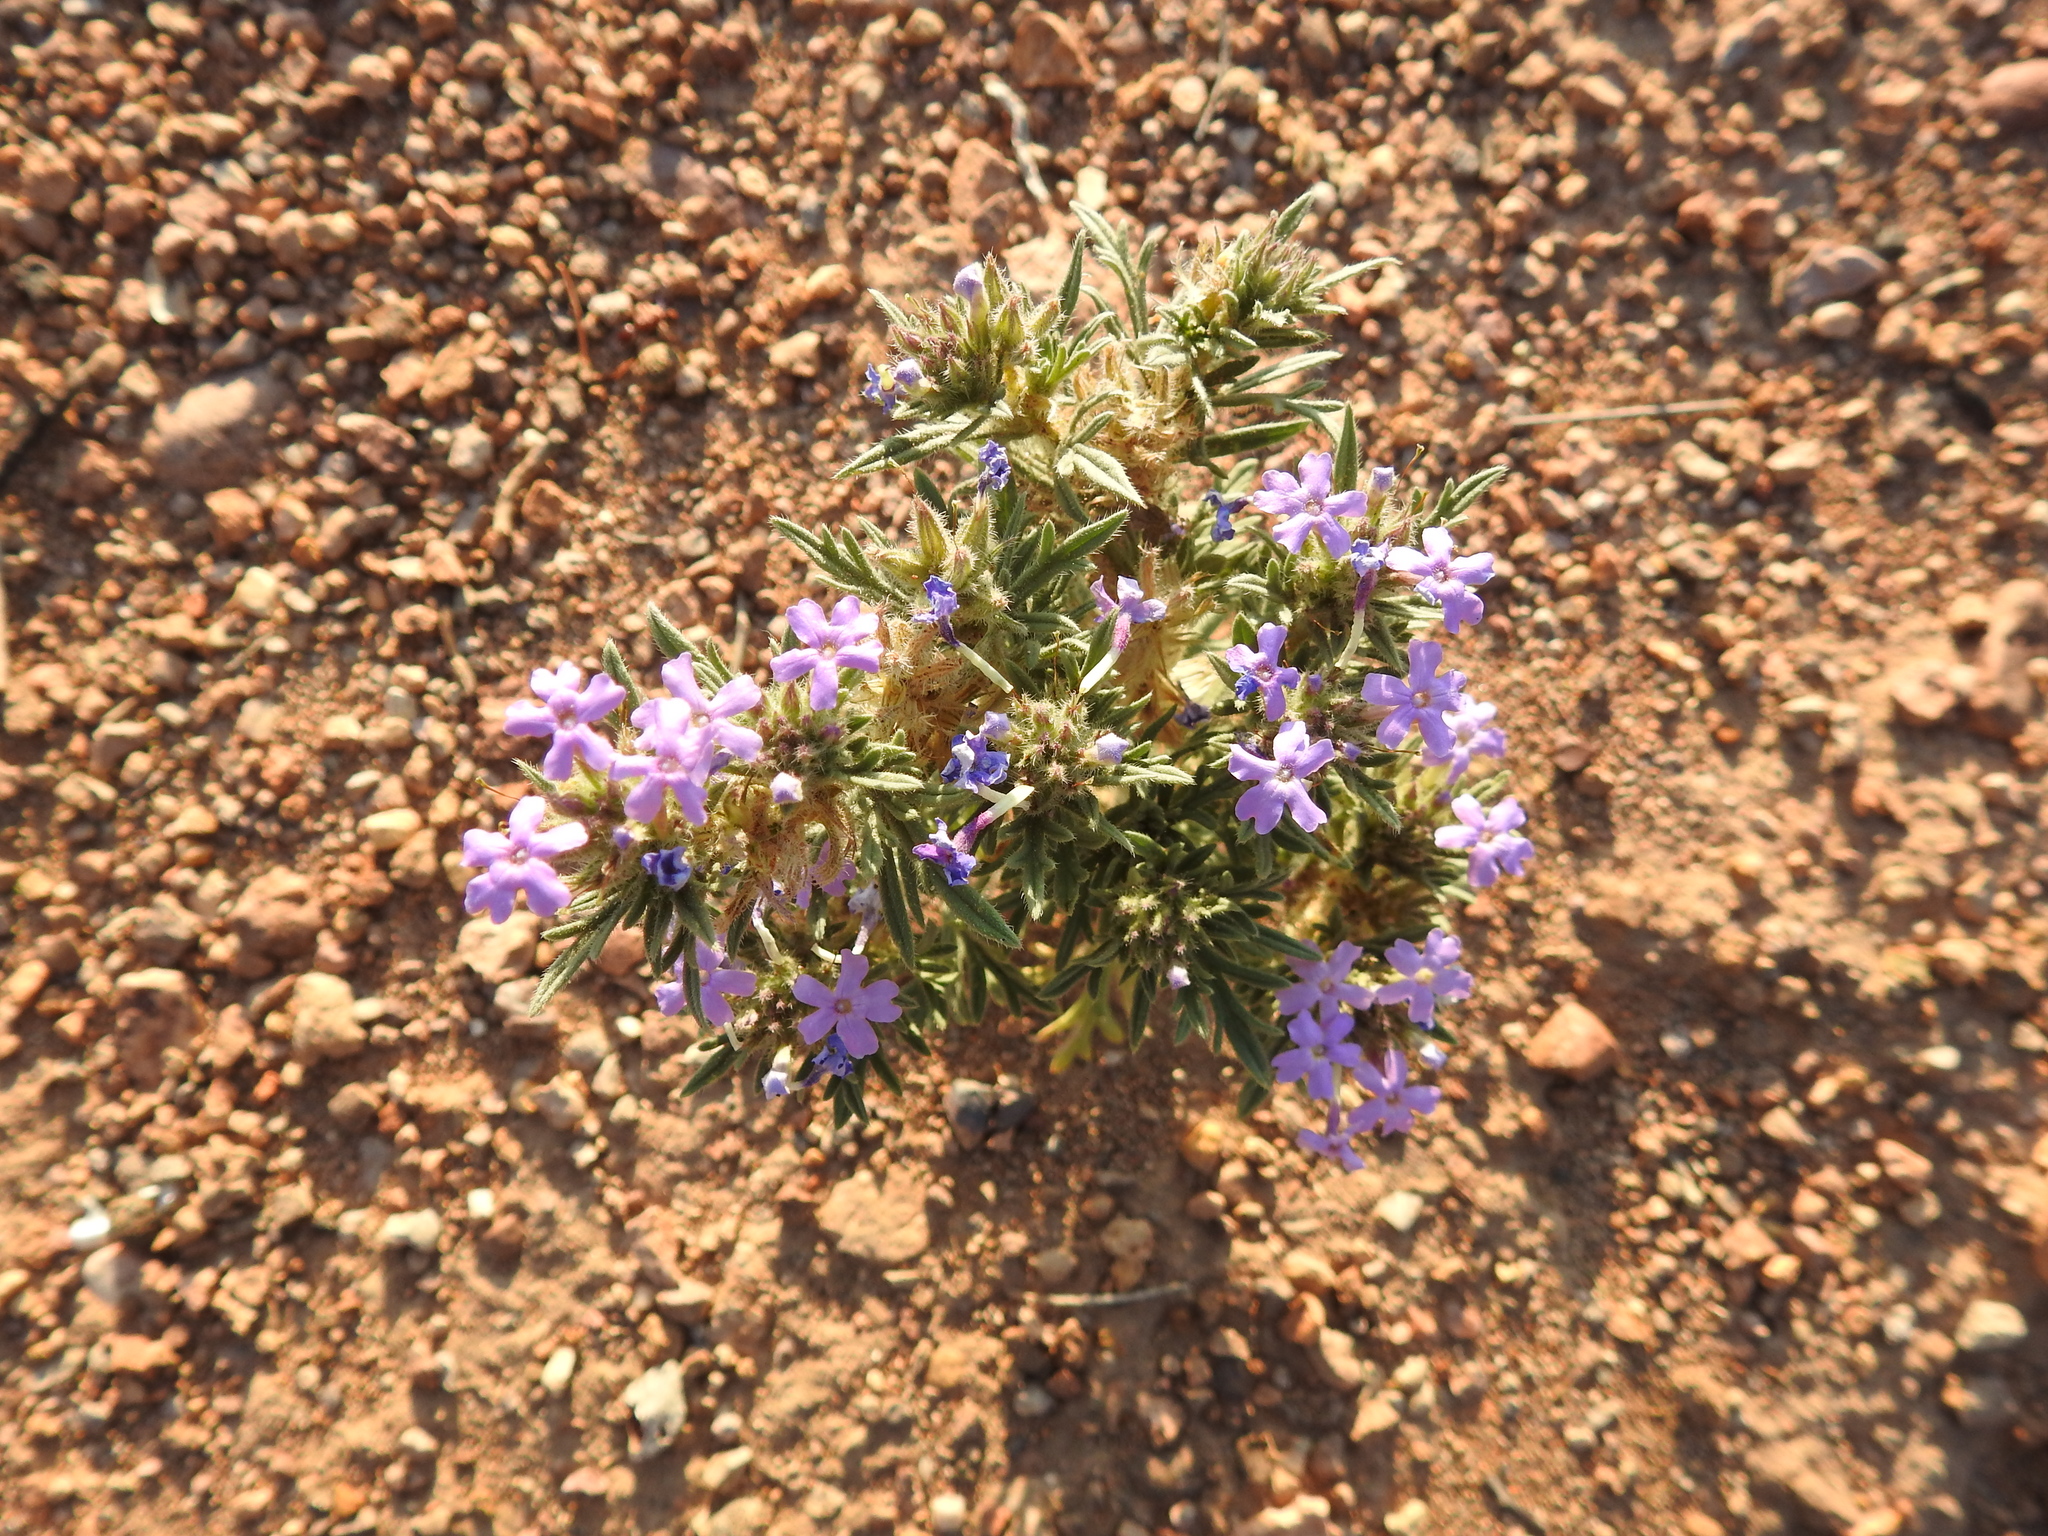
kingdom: Plantae
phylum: Tracheophyta
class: Magnoliopsida
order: Lamiales
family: Verbenaceae
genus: Verbena
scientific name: Verbena bipinnatifida
